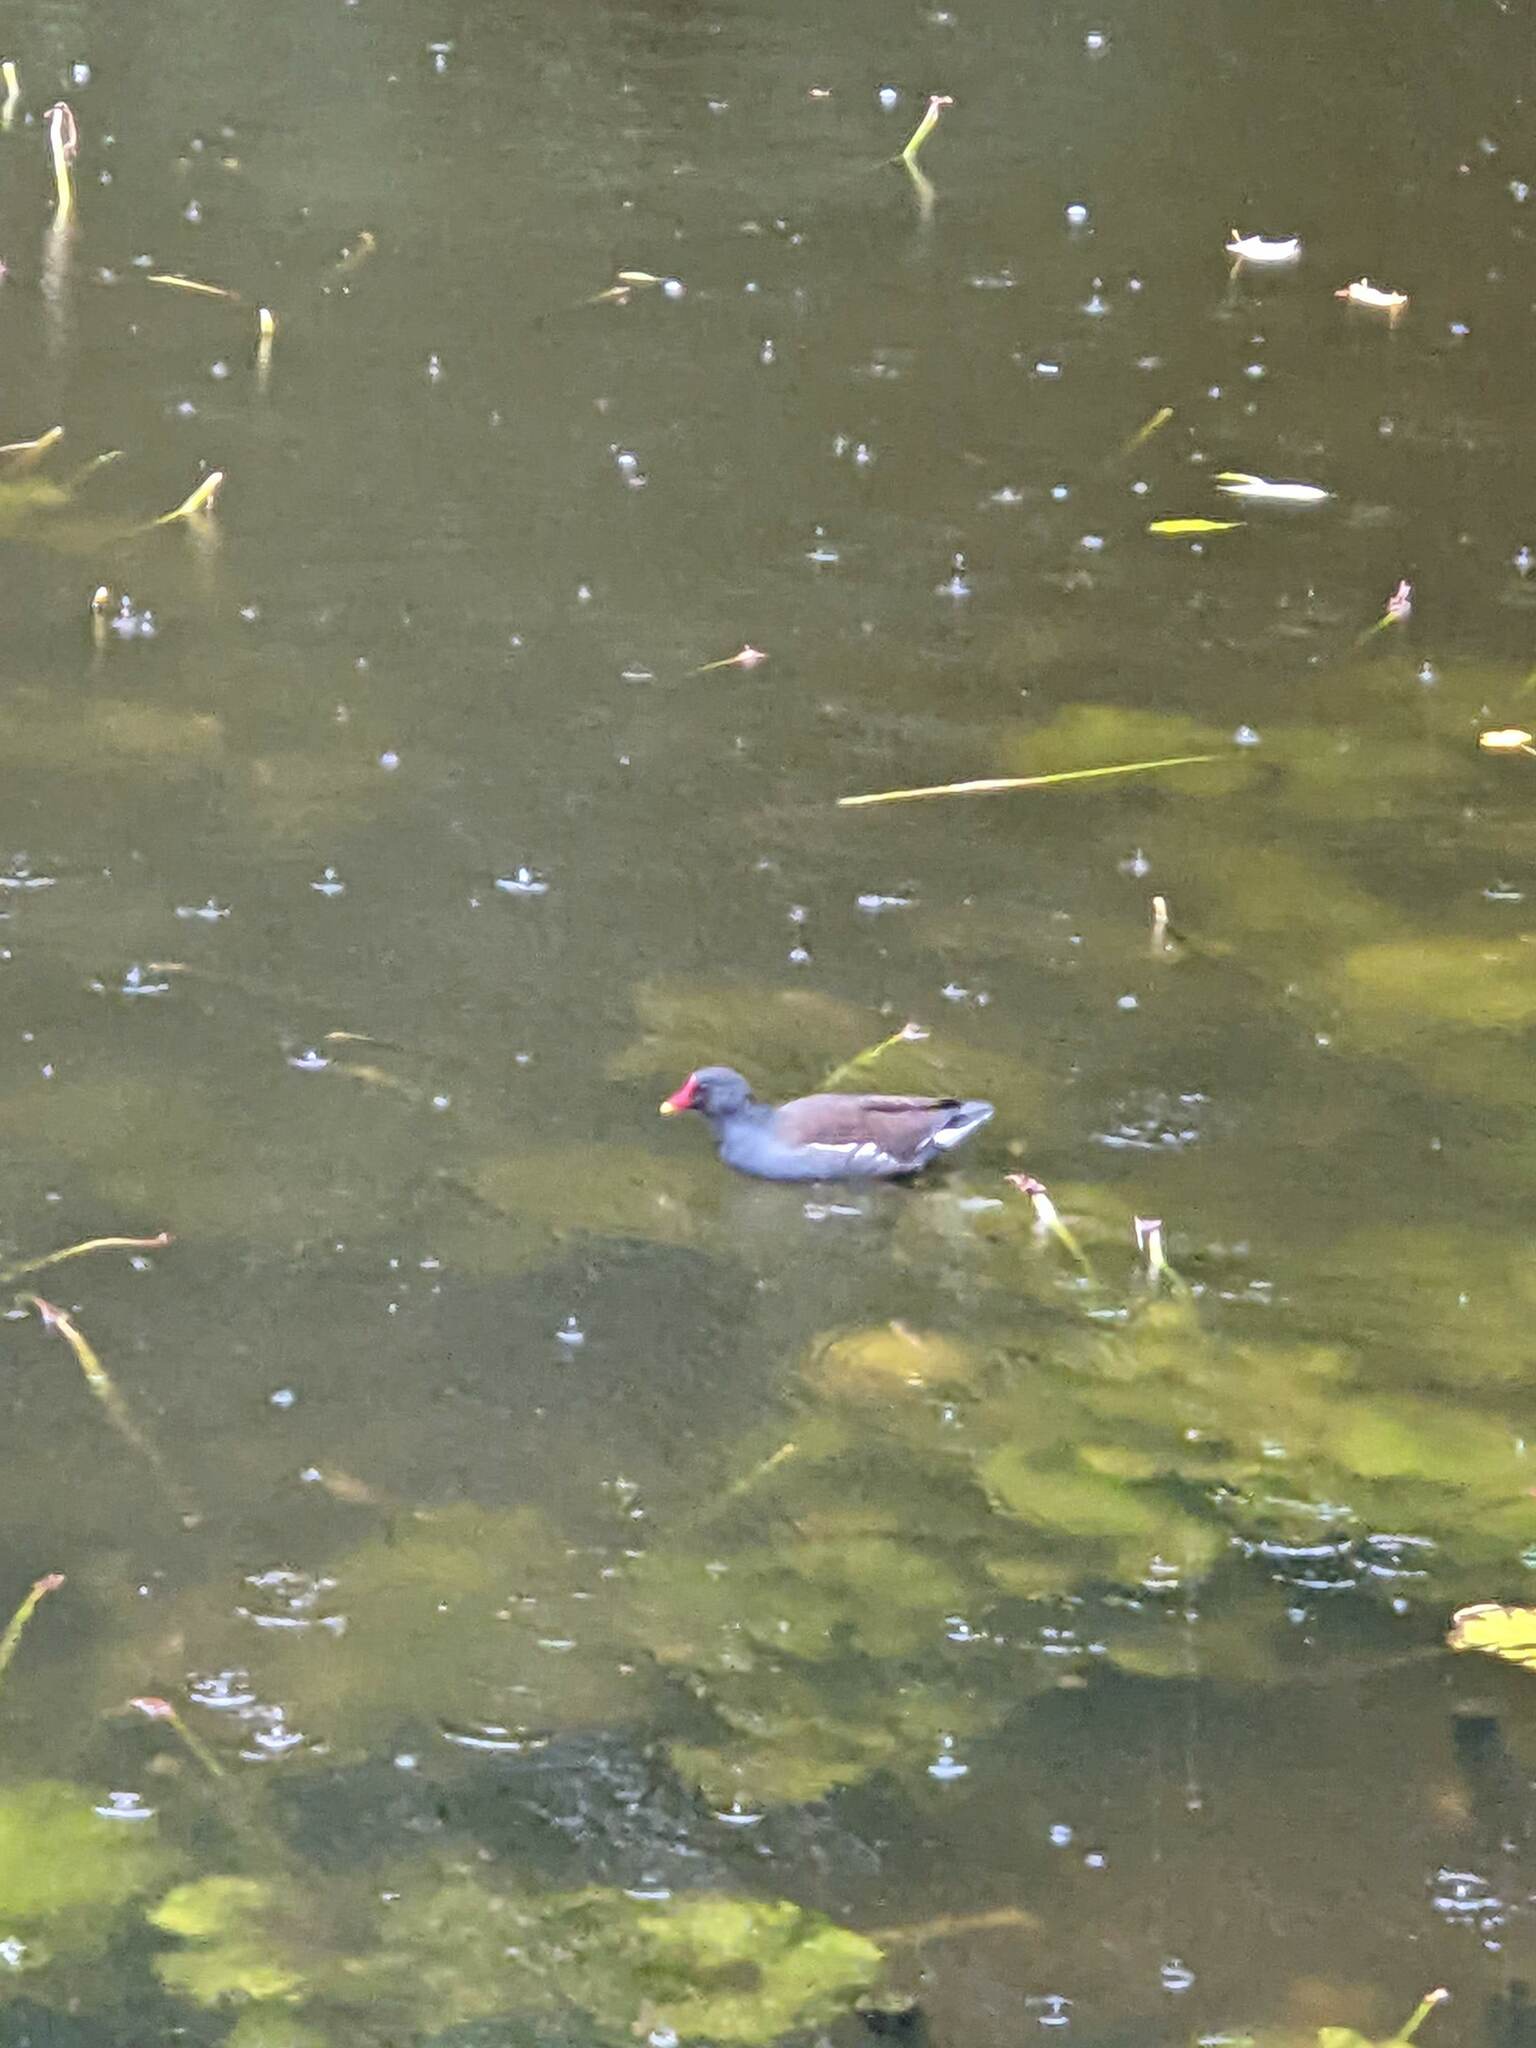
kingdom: Animalia
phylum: Chordata
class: Aves
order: Gruiformes
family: Rallidae
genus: Gallinula
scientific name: Gallinula chloropus
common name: Common moorhen
